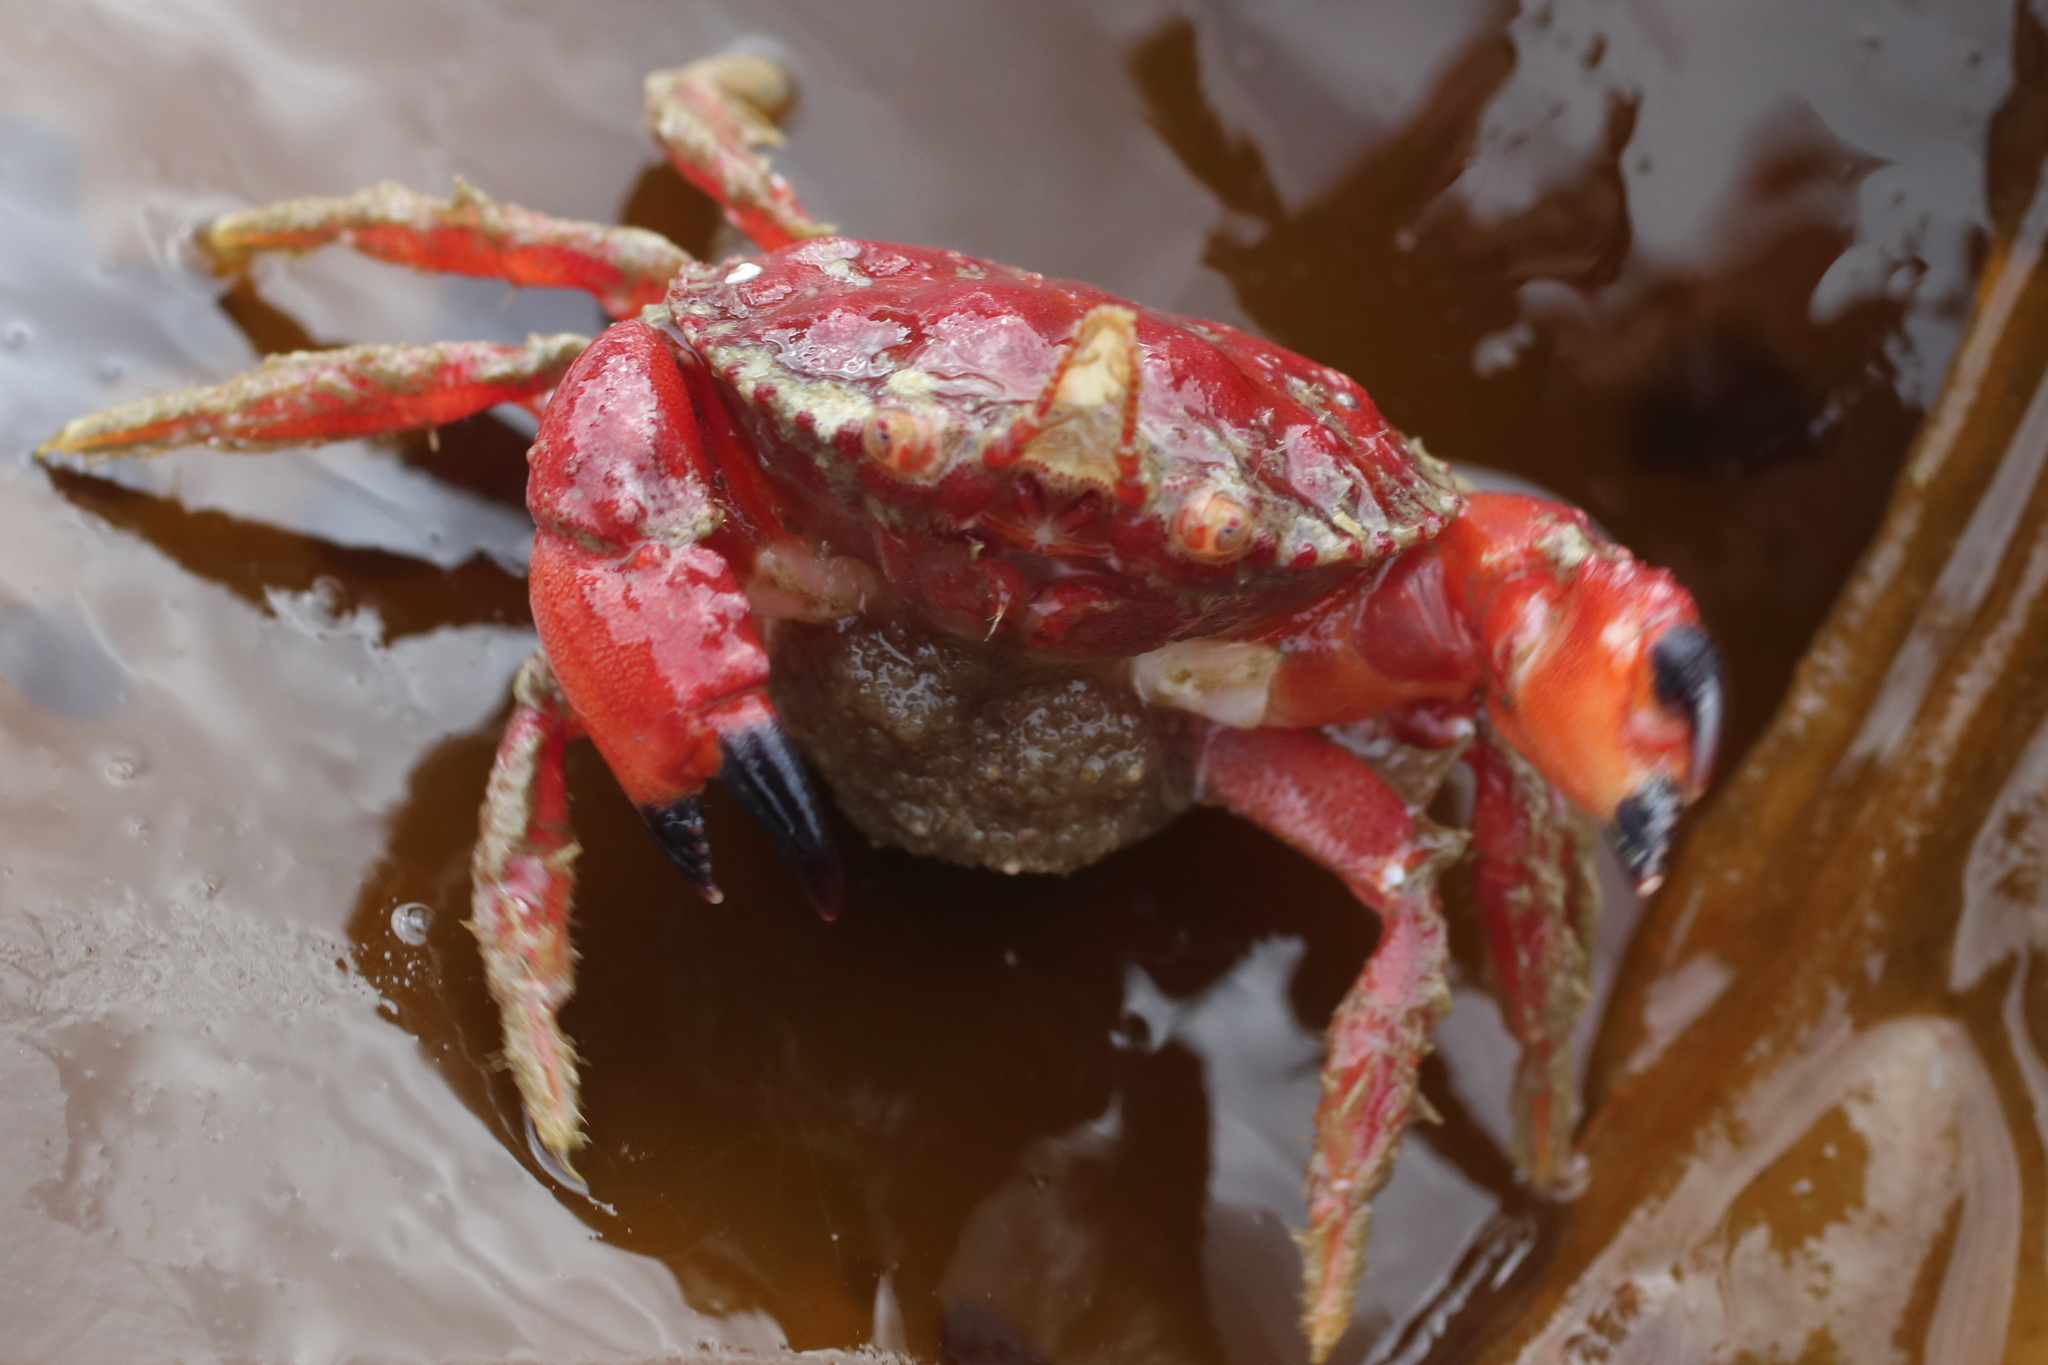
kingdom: Animalia
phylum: Arthropoda
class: Malacostraca
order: Decapoda
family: Cancridae
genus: Glebocarcinus
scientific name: Glebocarcinus oregonensis
